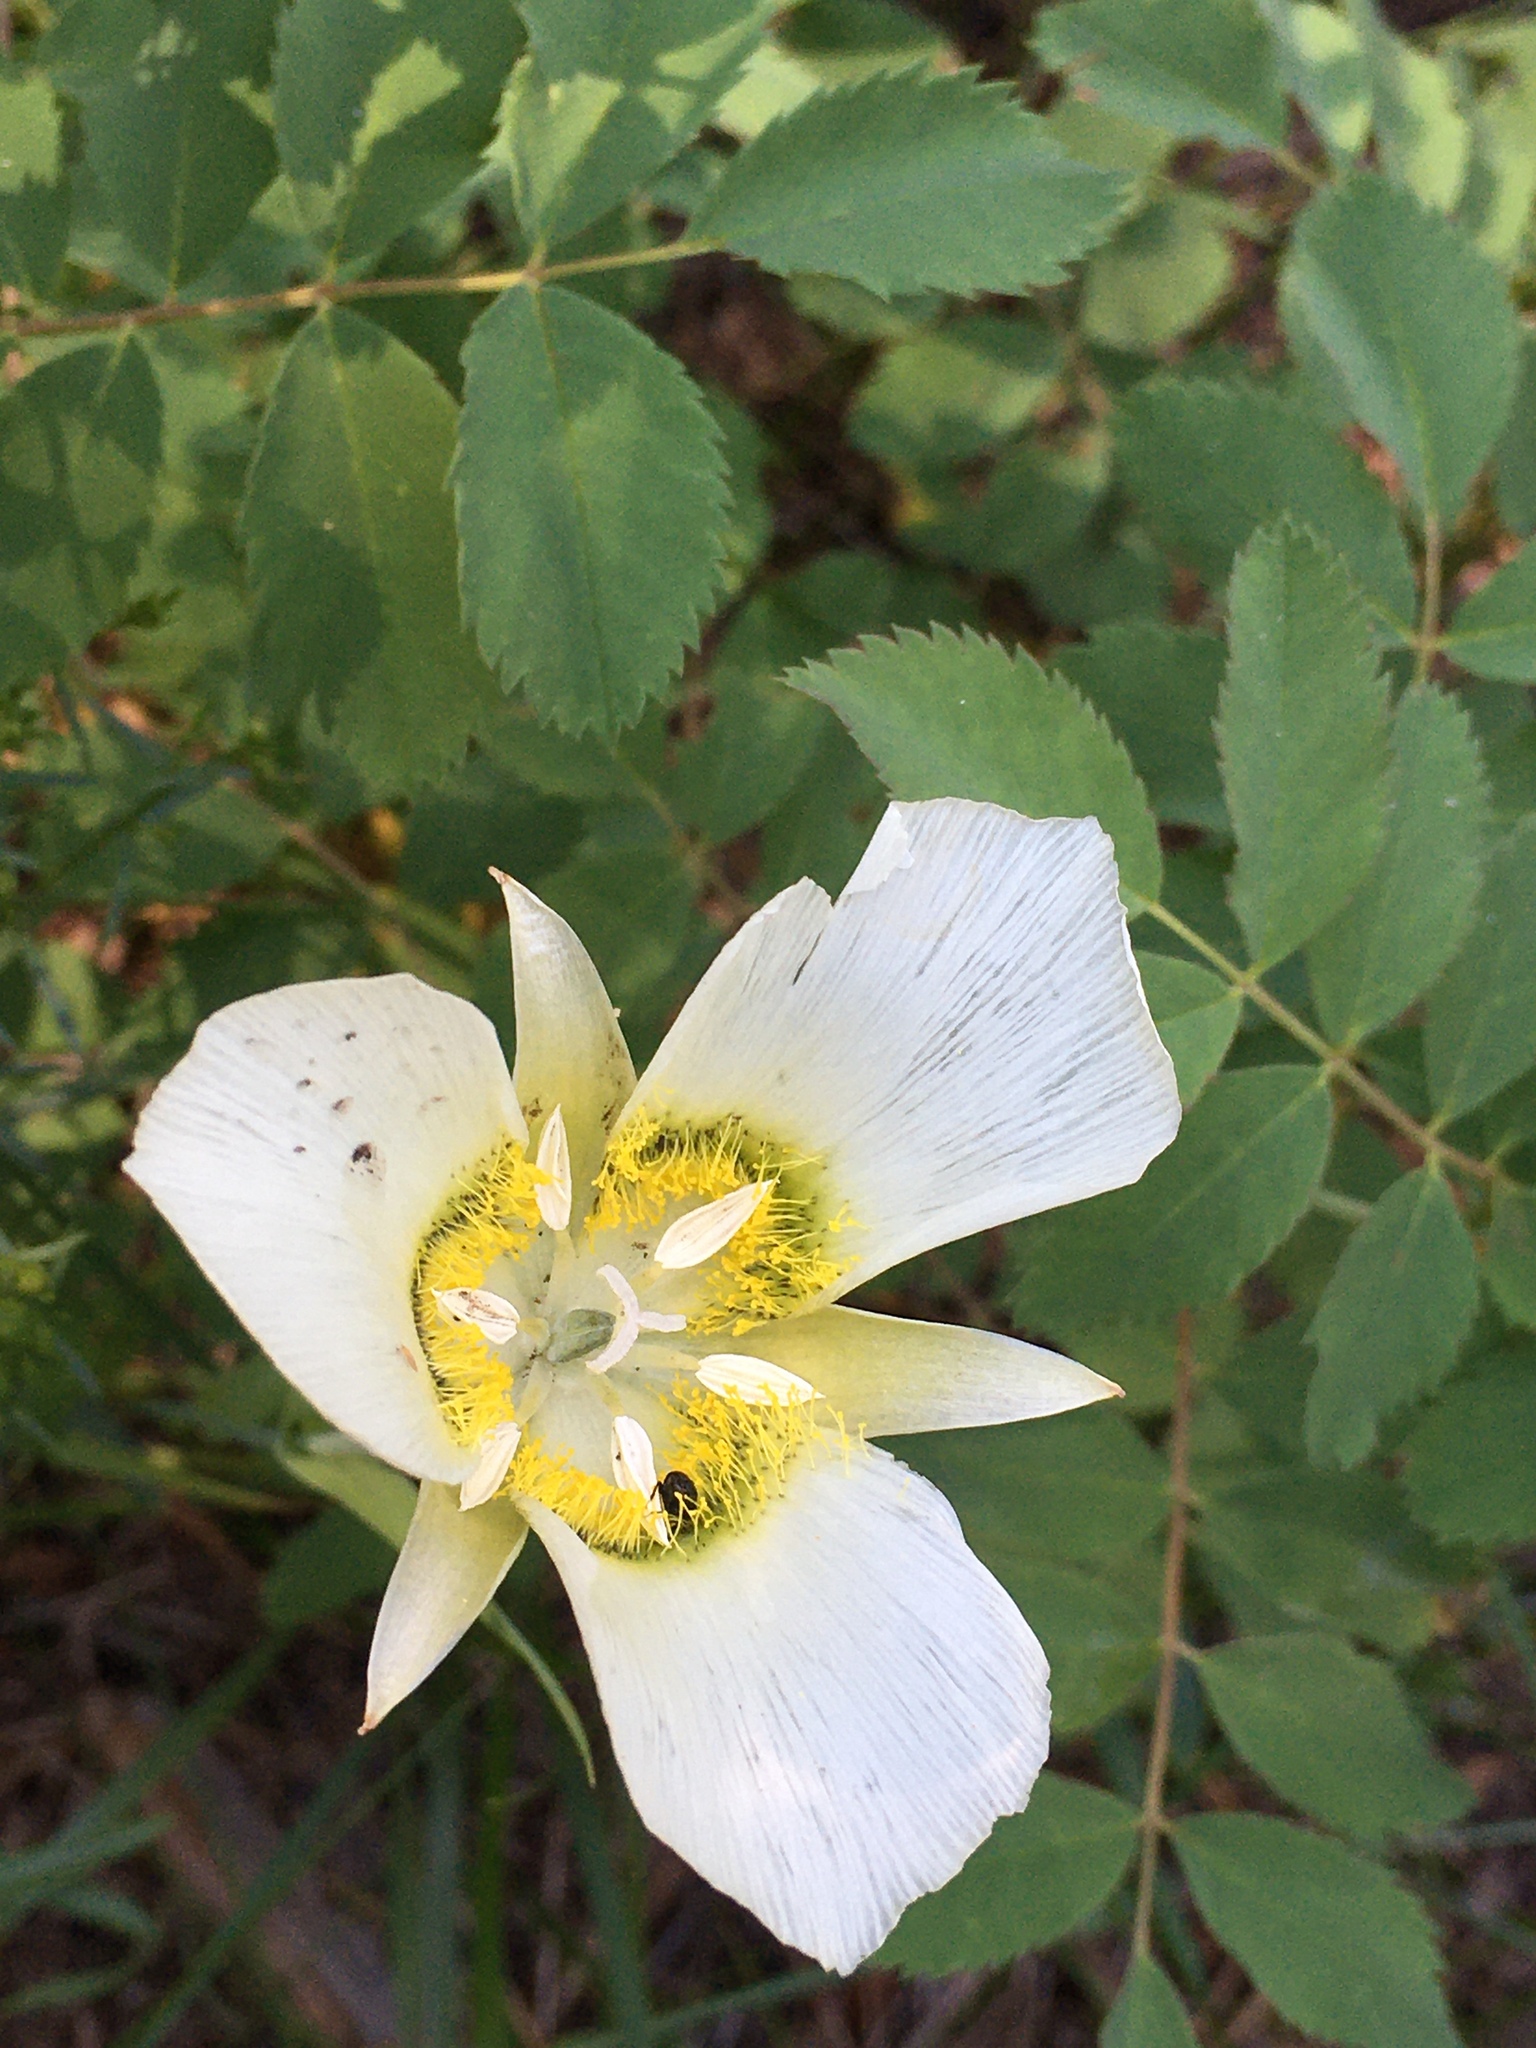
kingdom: Plantae
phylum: Tracheophyta
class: Liliopsida
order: Liliales
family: Liliaceae
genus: Calochortus
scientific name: Calochortus gunnisonii
